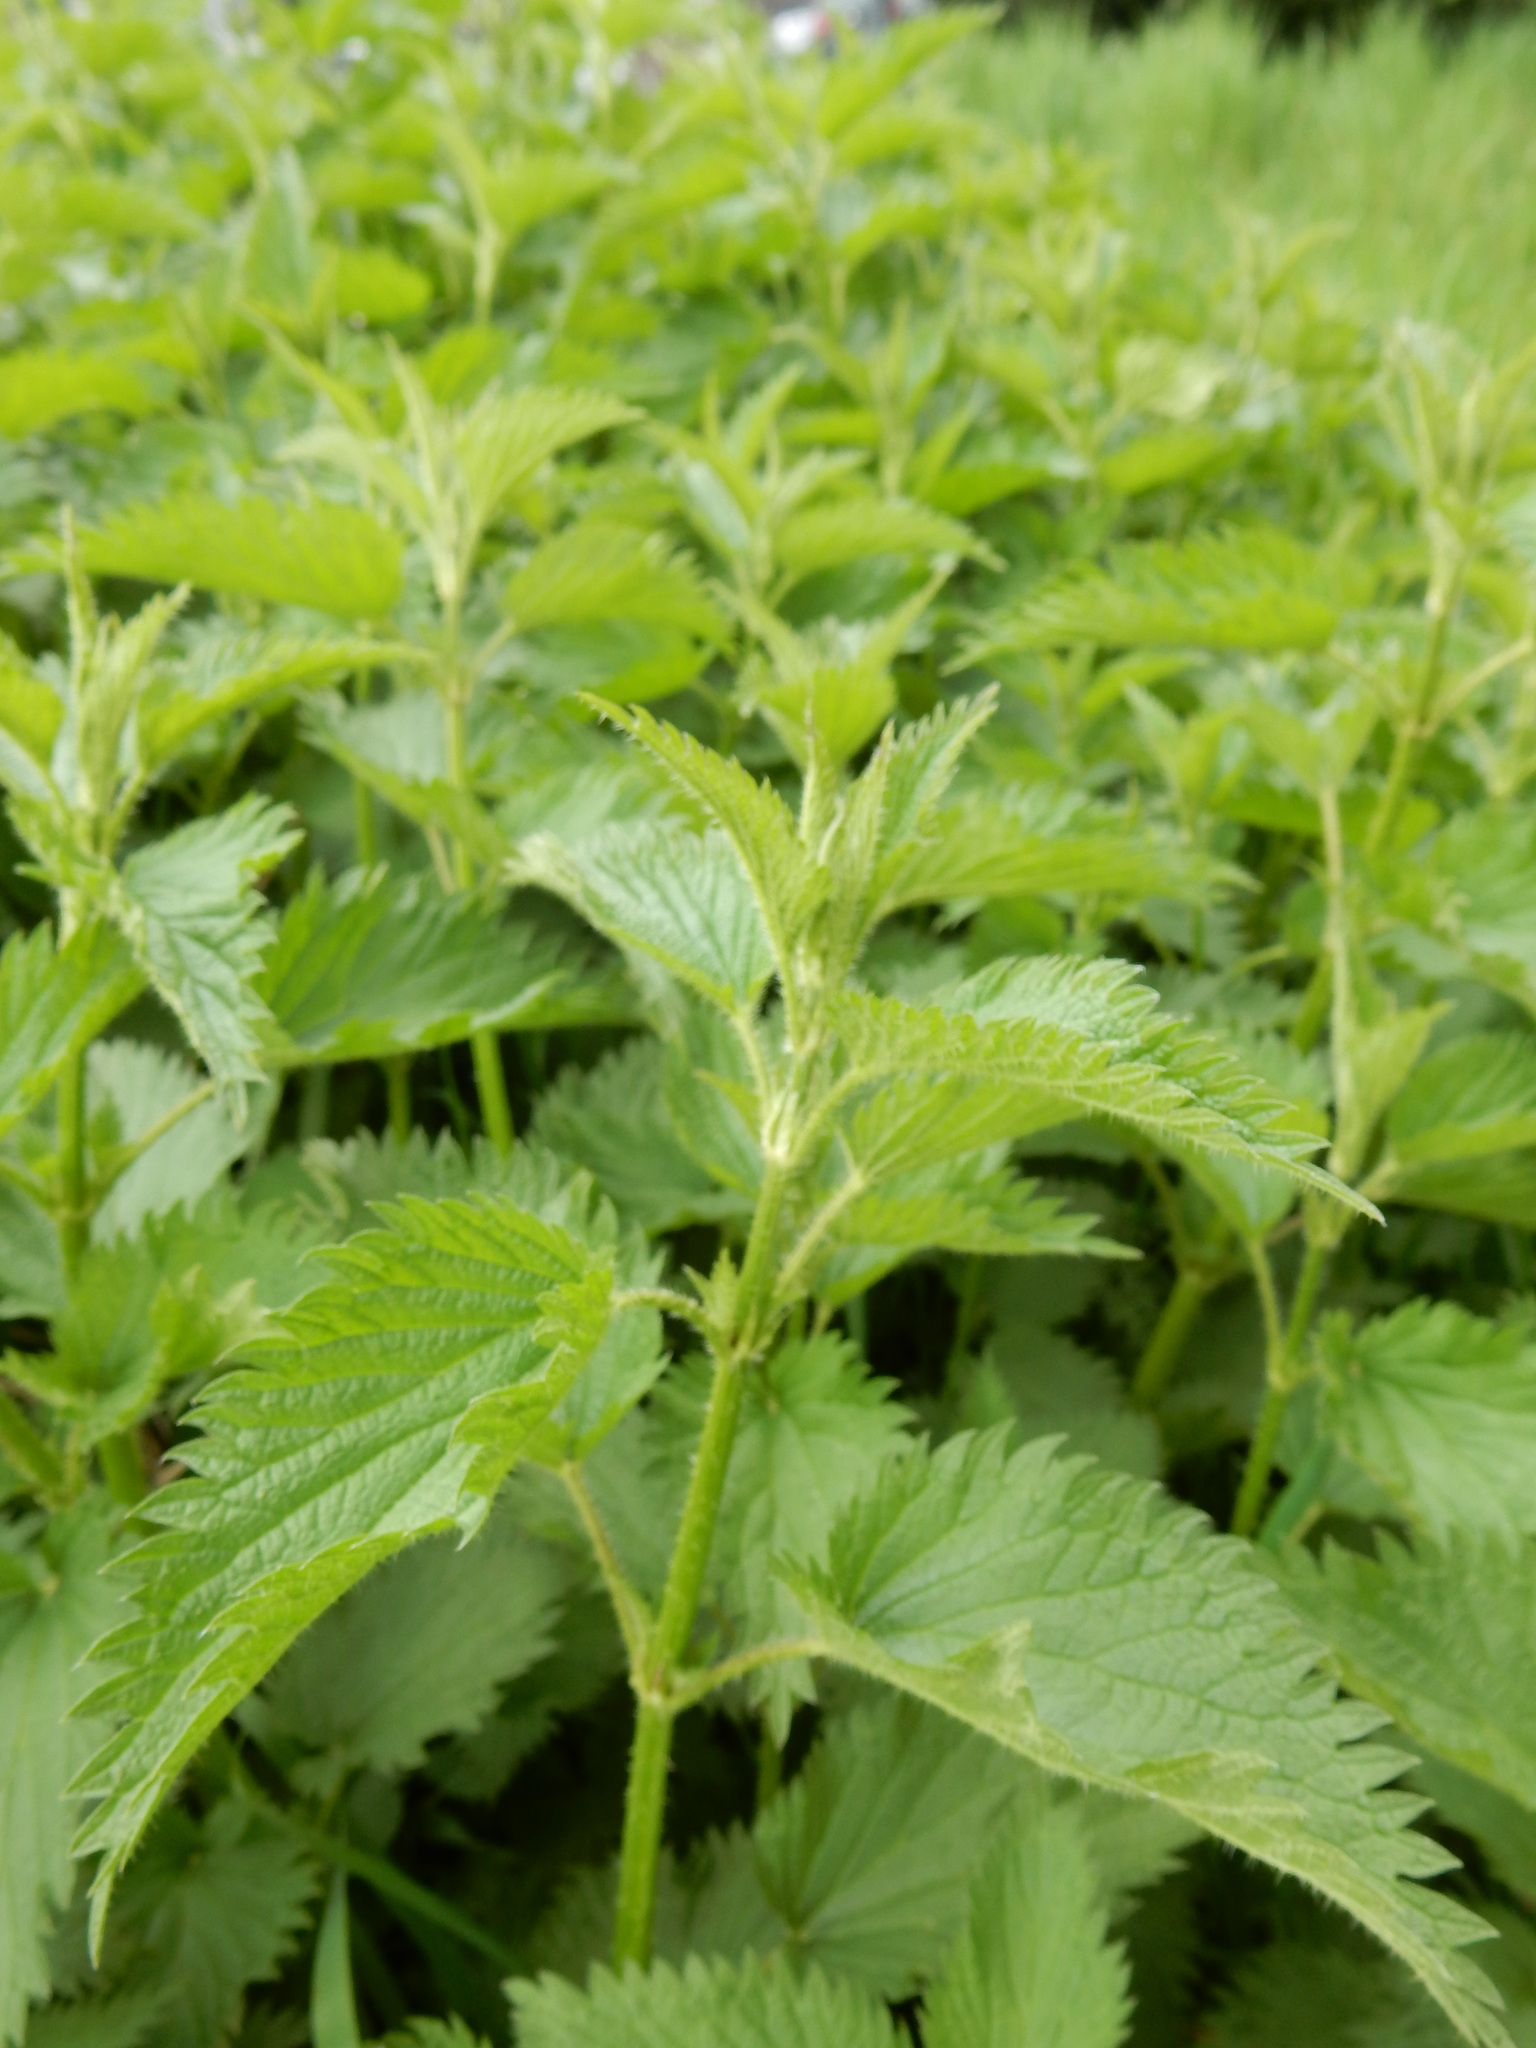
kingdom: Plantae
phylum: Tracheophyta
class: Magnoliopsida
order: Rosales
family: Urticaceae
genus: Urtica
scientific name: Urtica dioica
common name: Common nettle
